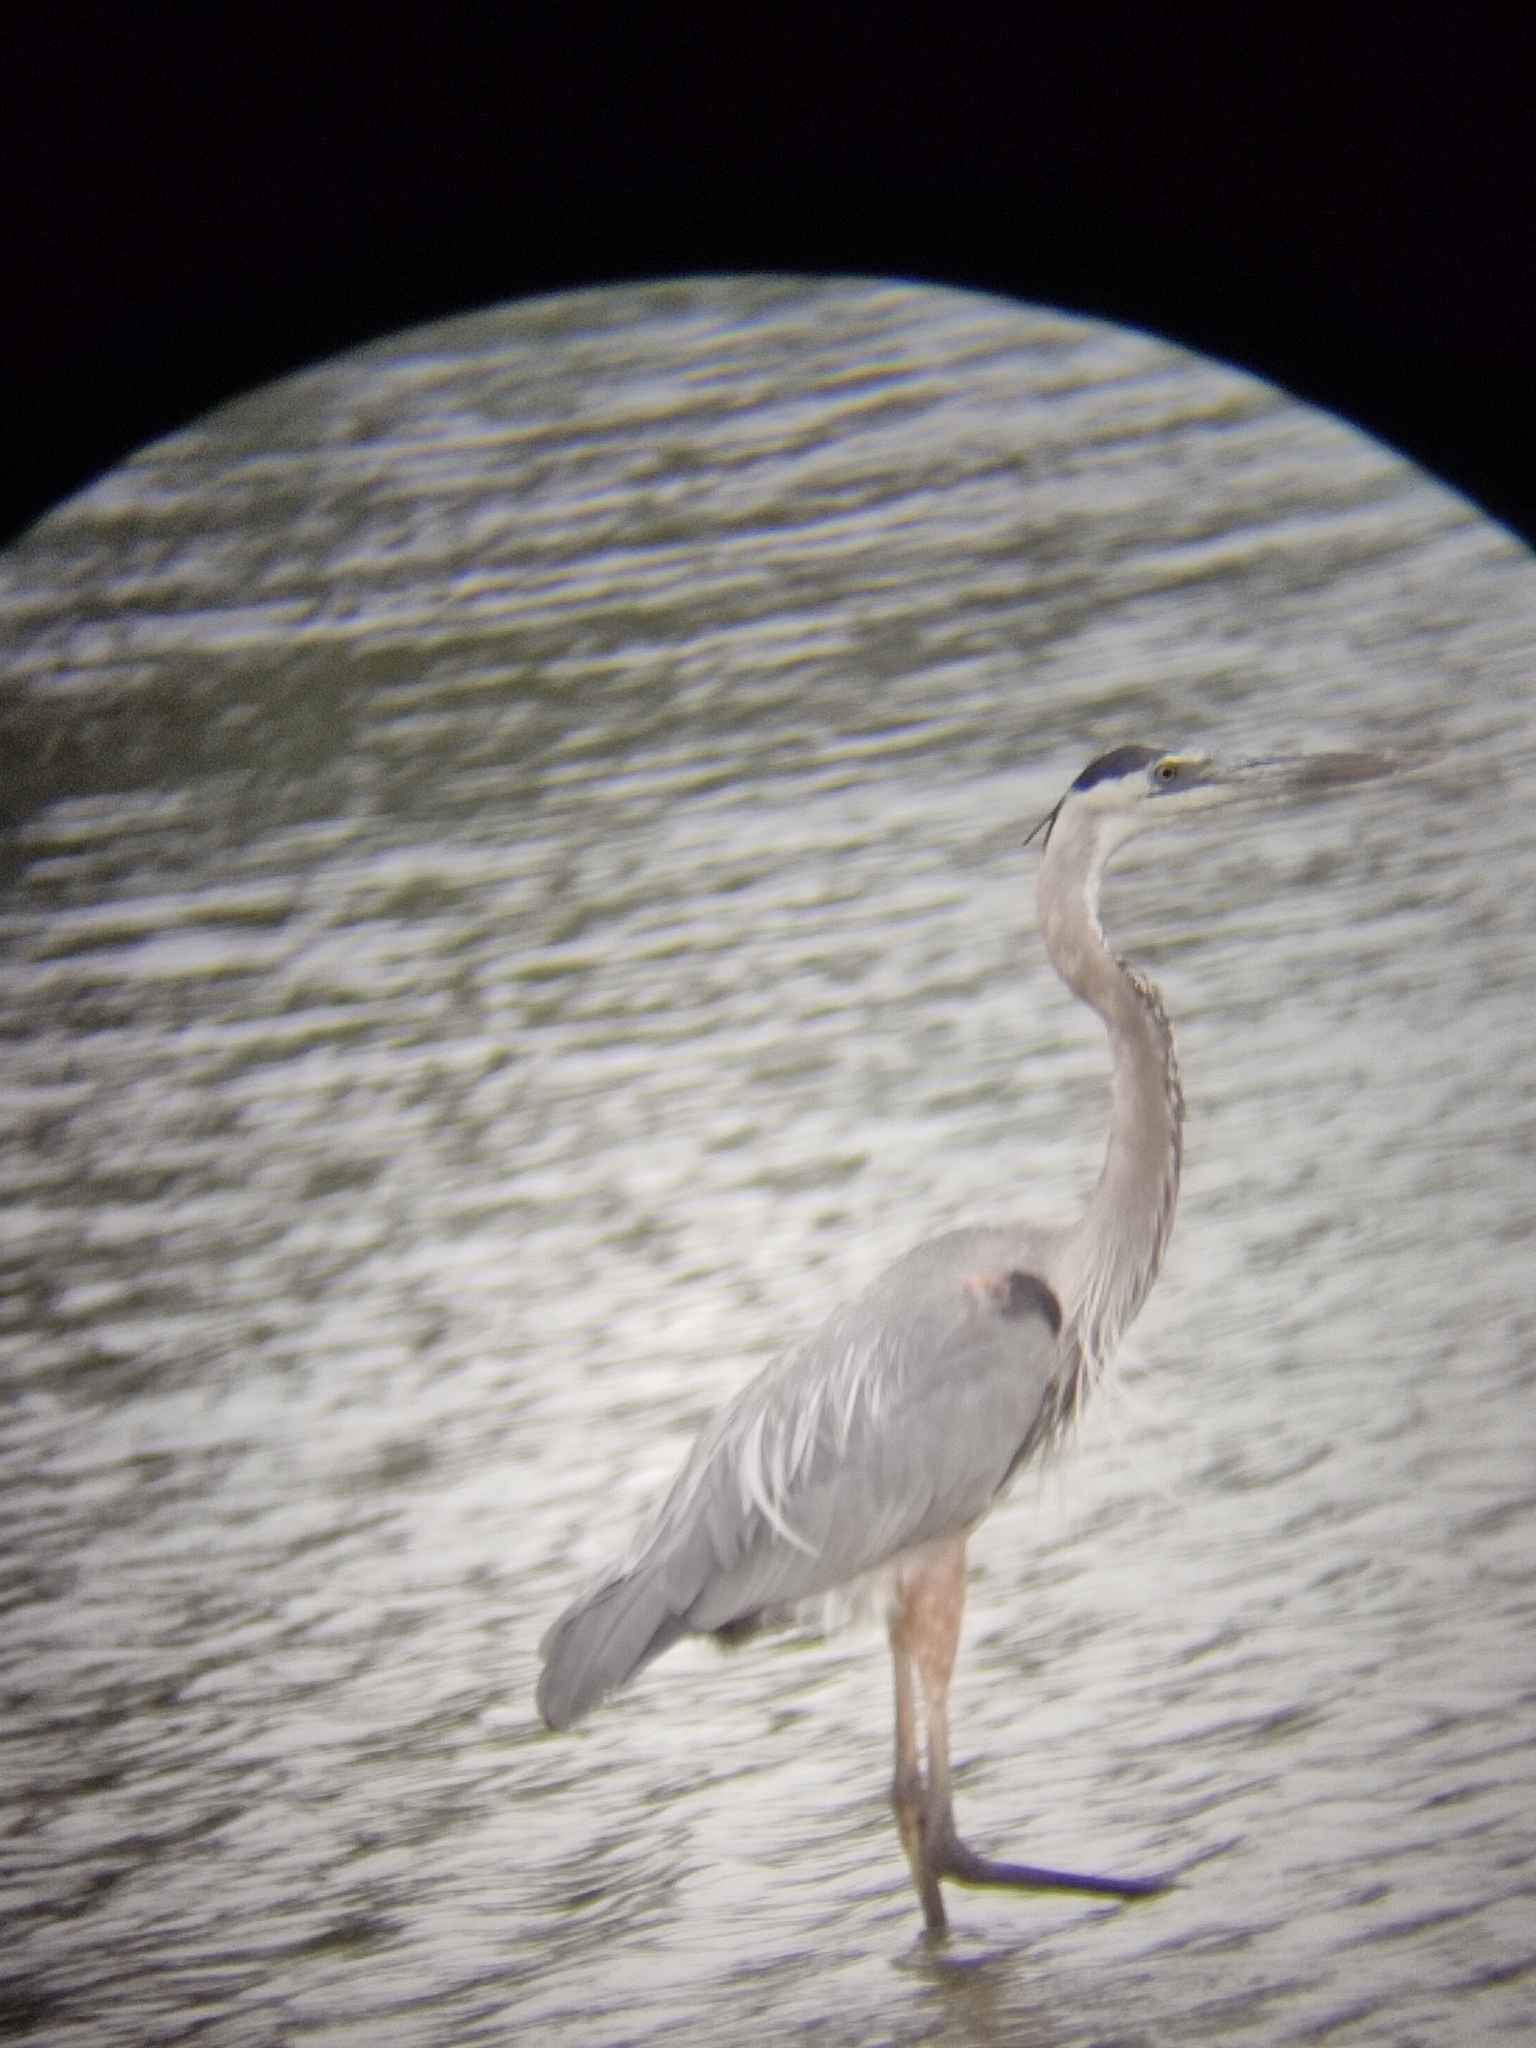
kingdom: Animalia
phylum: Chordata
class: Aves
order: Pelecaniformes
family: Ardeidae
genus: Ardea
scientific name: Ardea herodias
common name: Great blue heron
